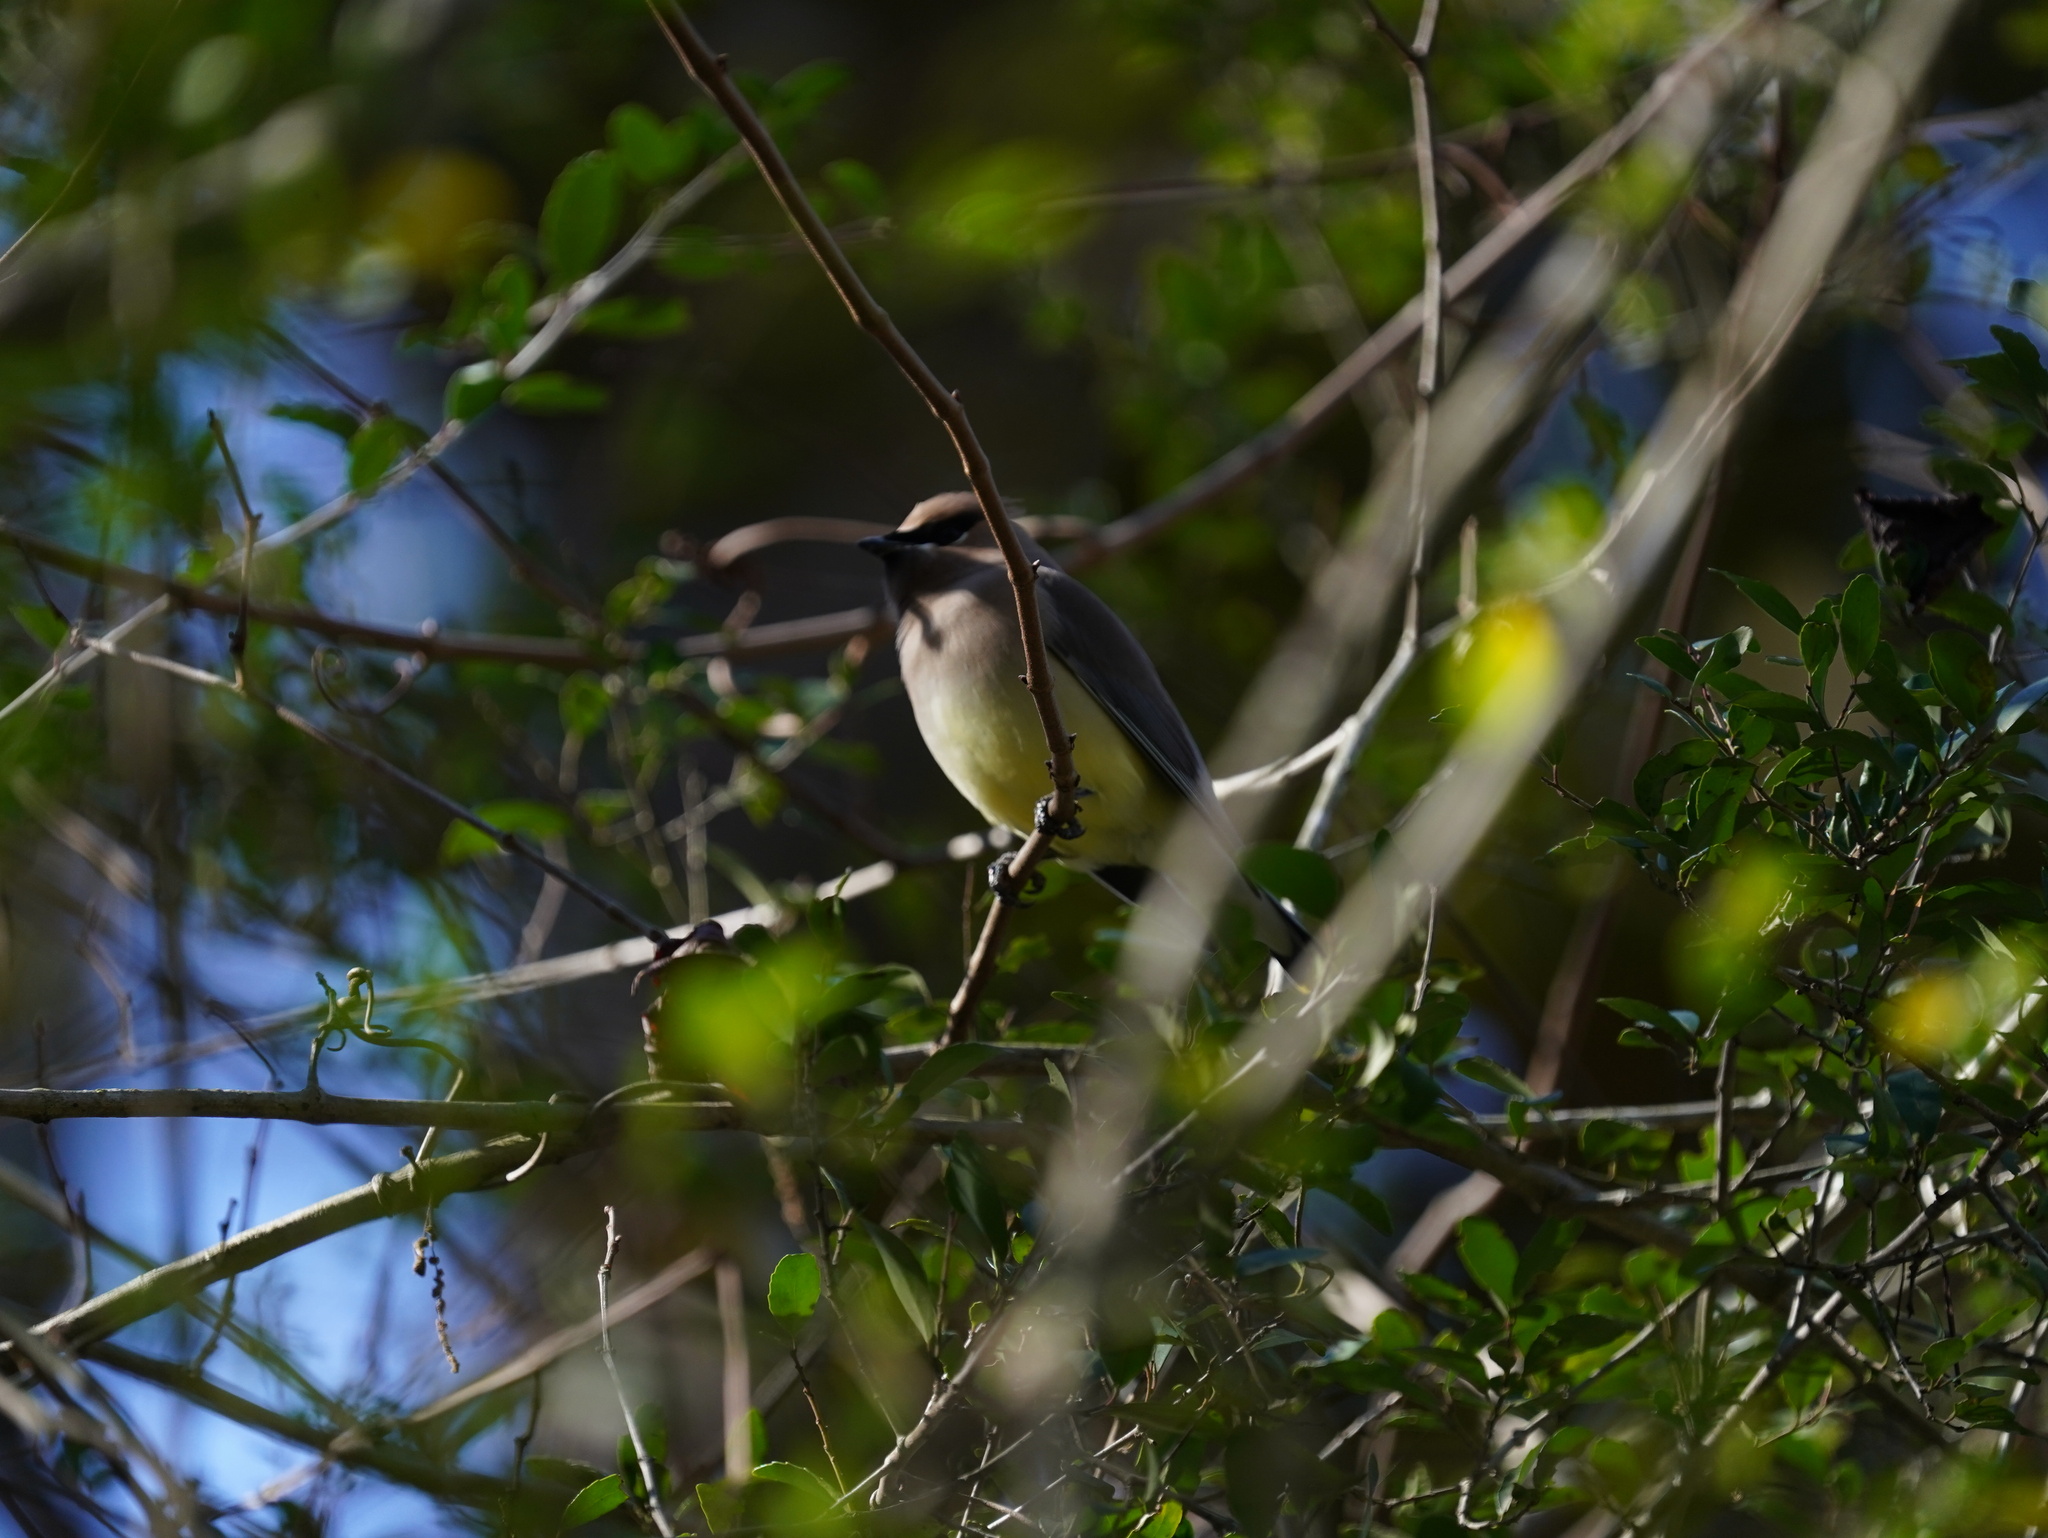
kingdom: Animalia
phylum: Chordata
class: Aves
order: Passeriformes
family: Bombycillidae
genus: Bombycilla
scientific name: Bombycilla cedrorum
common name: Cedar waxwing
